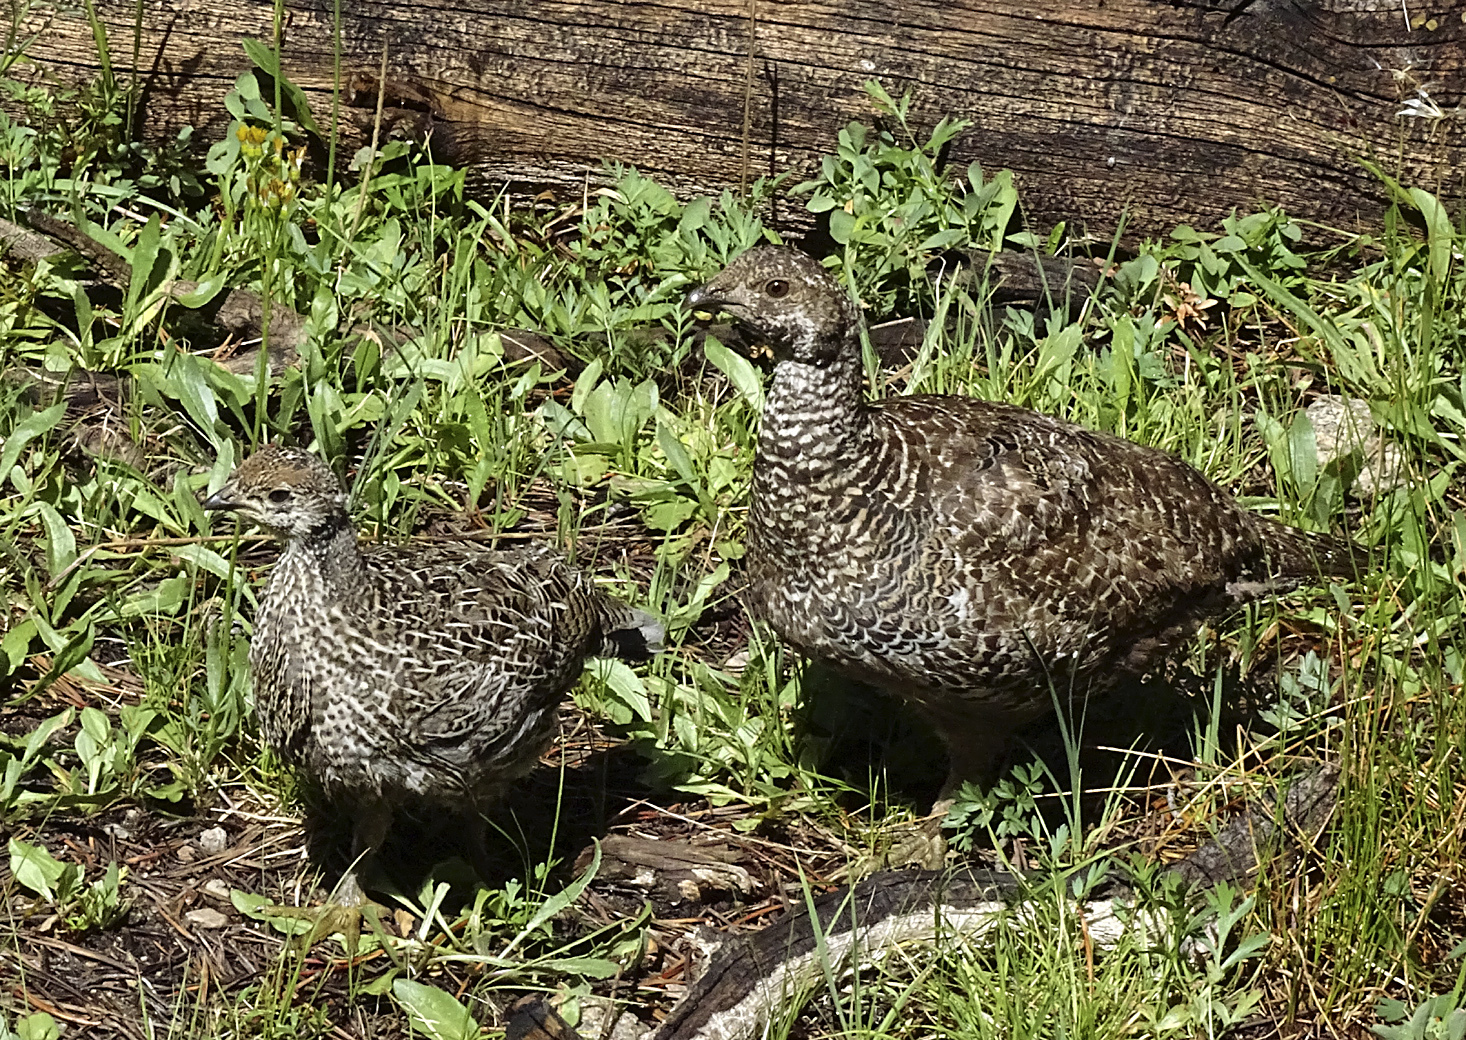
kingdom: Animalia
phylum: Chordata
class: Aves
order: Galliformes
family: Phasianidae
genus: Dendragapus
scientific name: Dendragapus fuliginosus
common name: Sooty grouse
